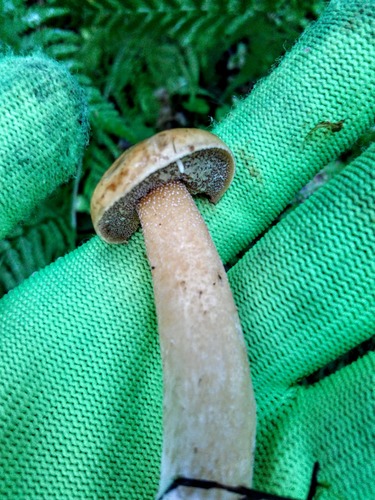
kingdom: Fungi
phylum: Basidiomycota
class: Agaricomycetes
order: Boletales
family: Suillaceae
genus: Suillus
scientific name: Suillus plorans
